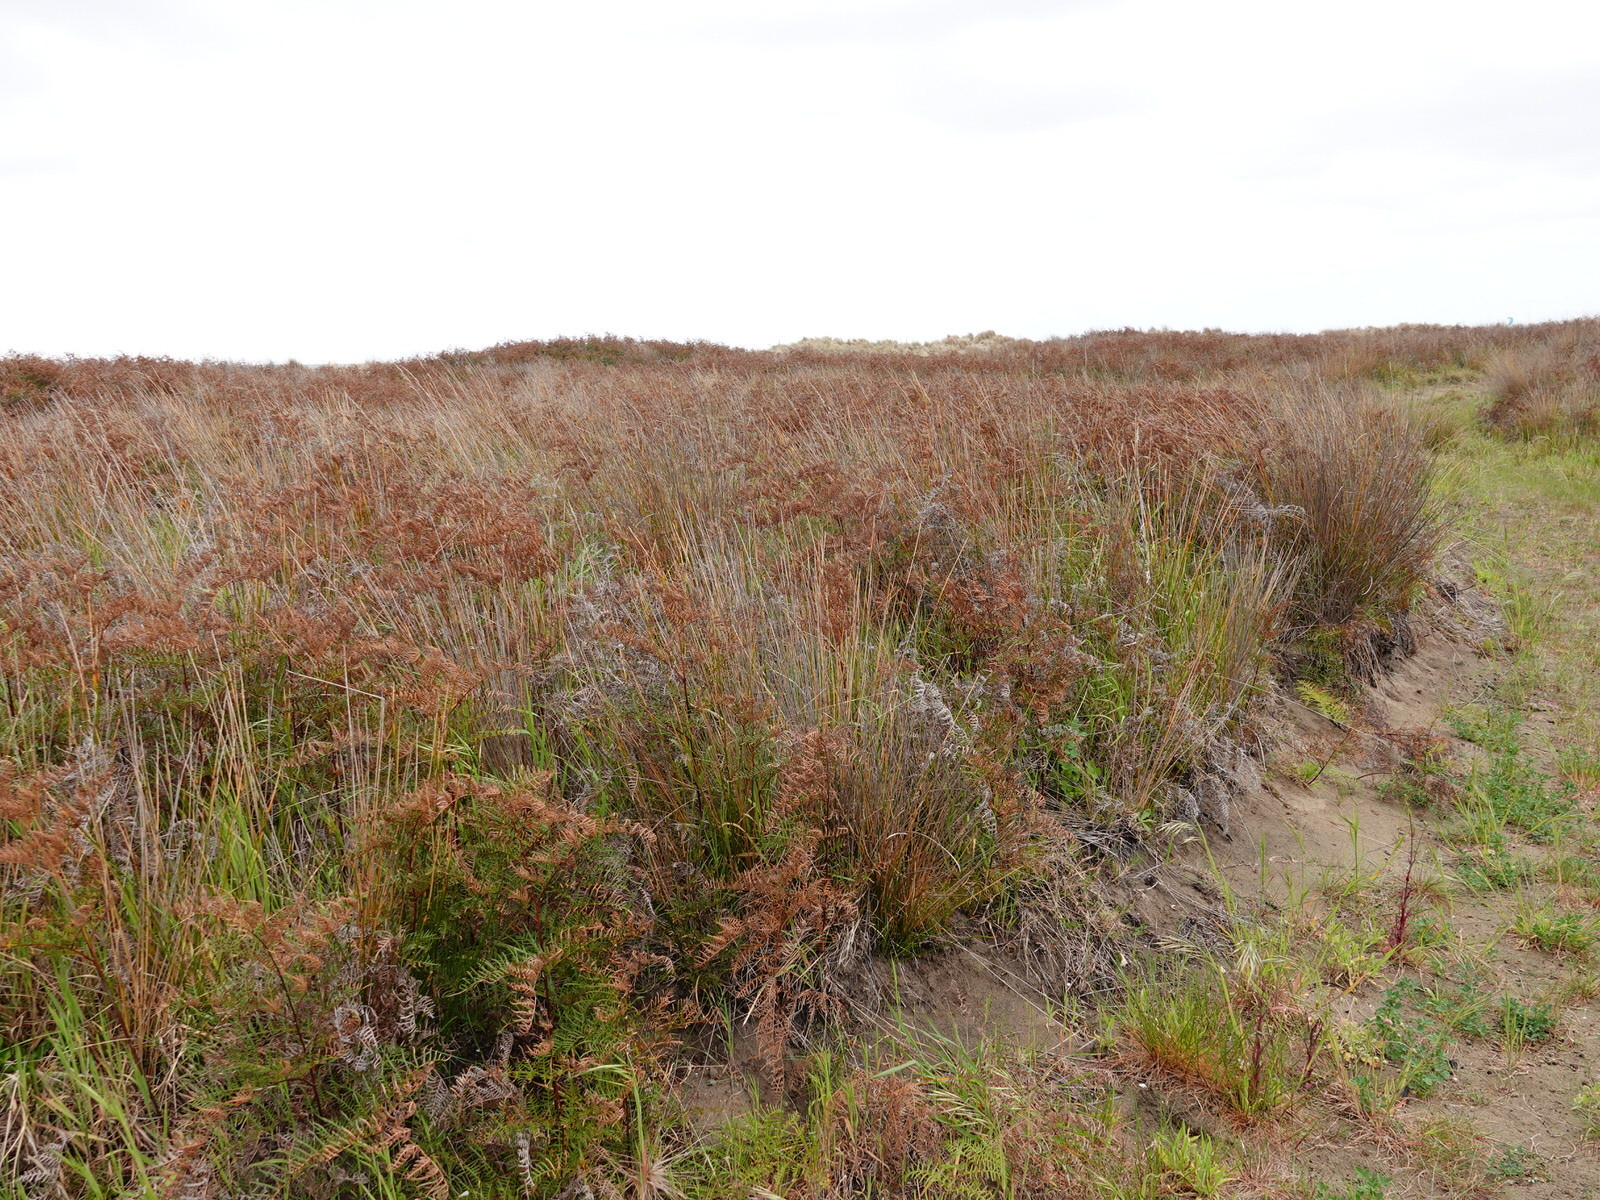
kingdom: Plantae
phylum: Tracheophyta
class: Polypodiopsida
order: Polypodiales
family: Dennstaedtiaceae
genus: Pteridium
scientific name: Pteridium esculentum
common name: Bracken fern
